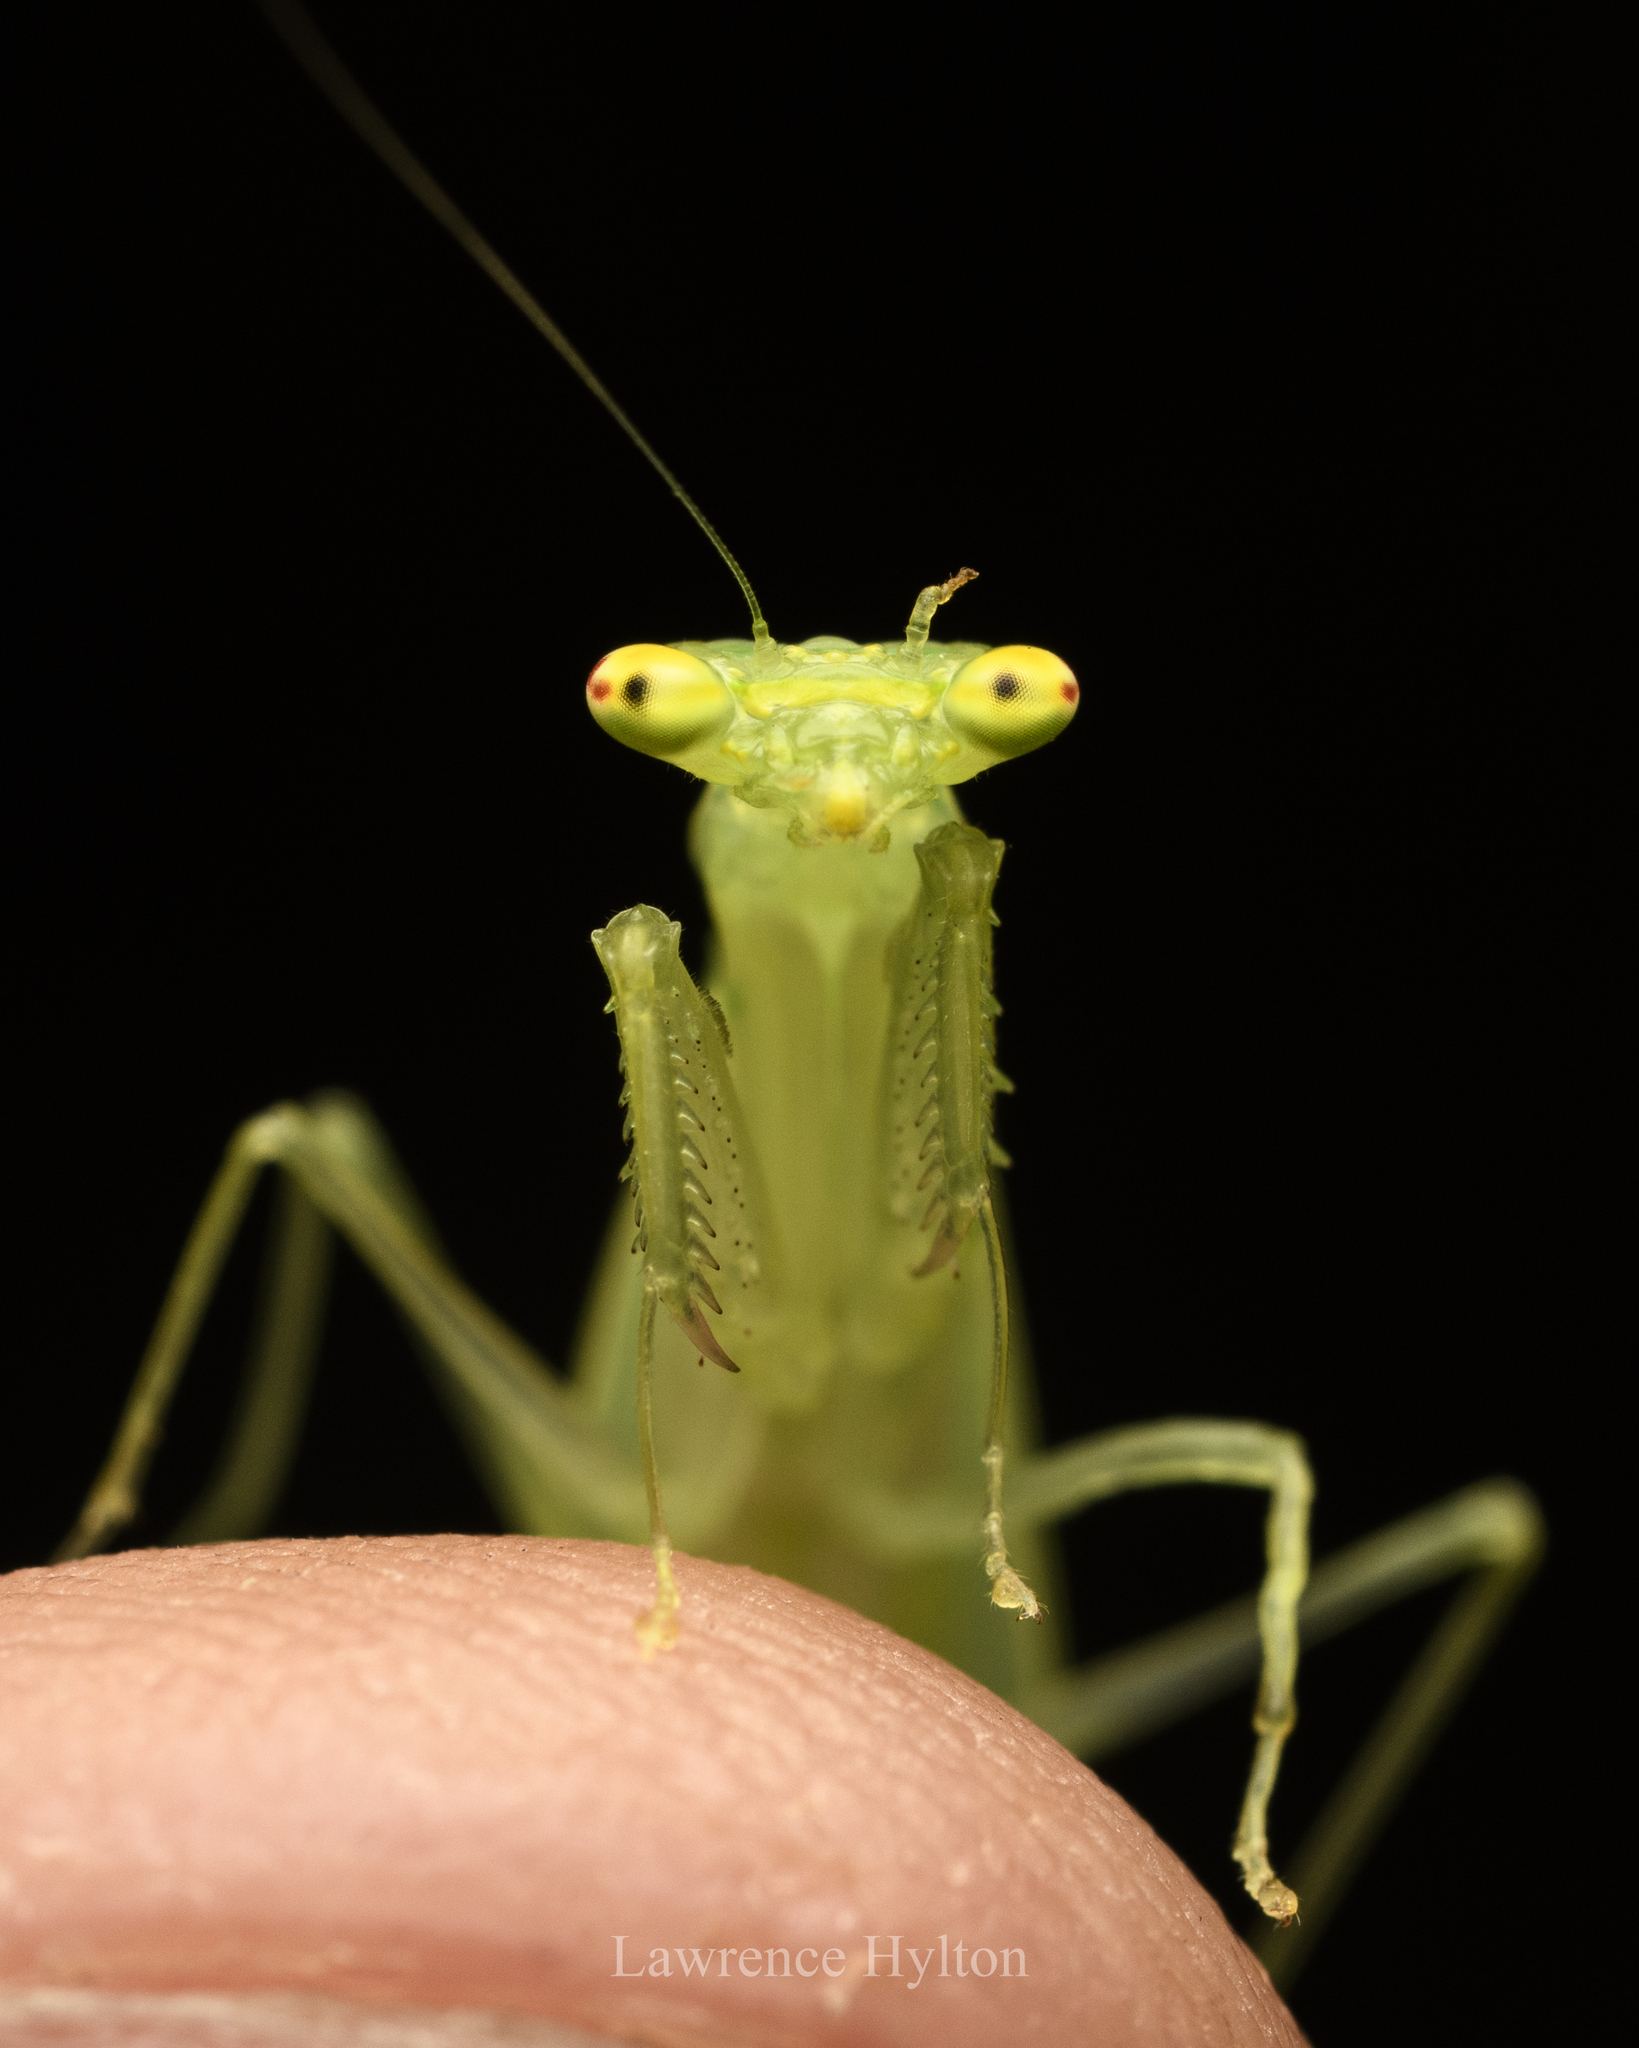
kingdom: Animalia
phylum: Arthropoda
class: Insecta
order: Mantodea
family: Nanomantidae
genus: Tropidomantis
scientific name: Tropidomantis gressitti
